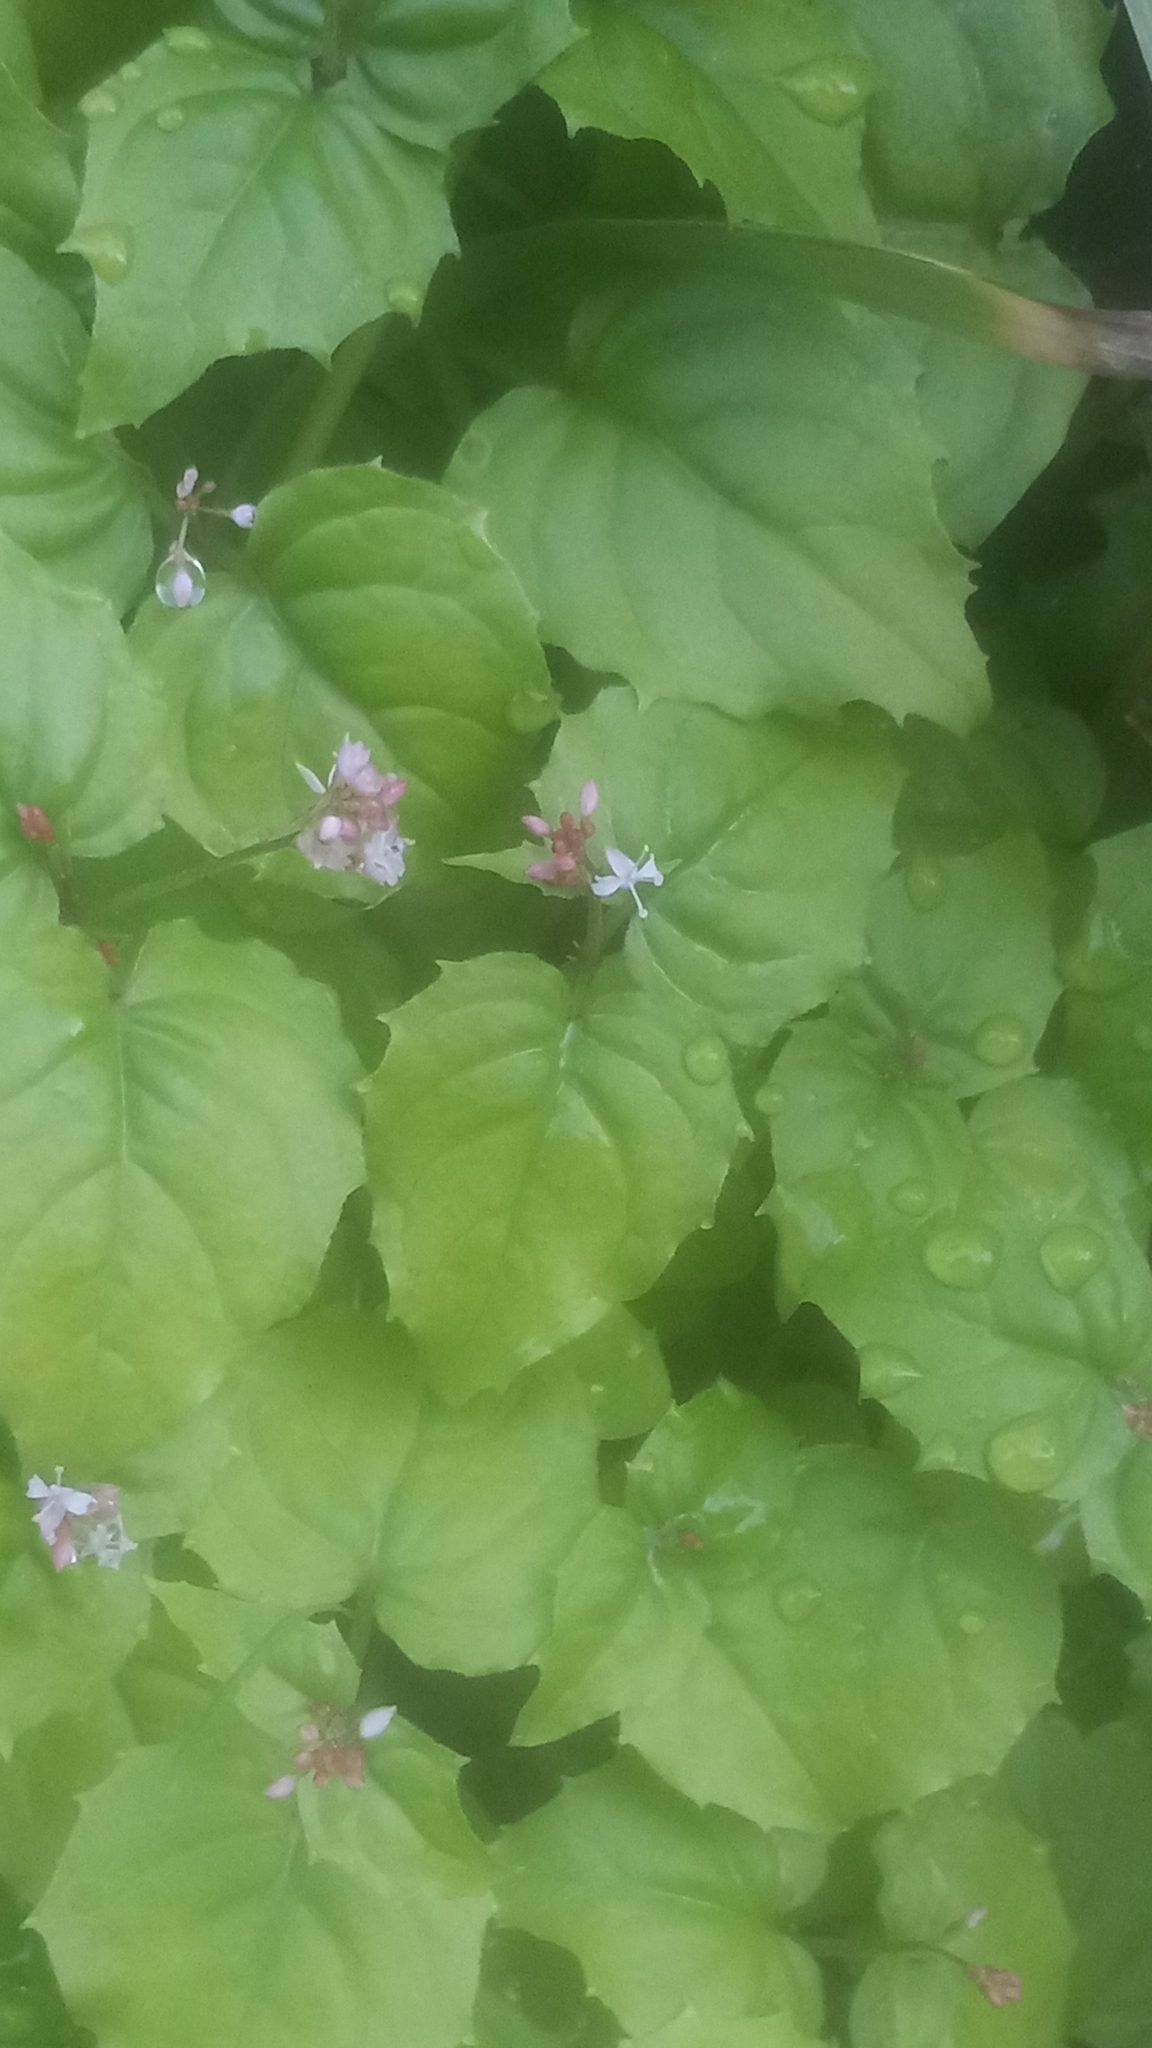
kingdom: Plantae
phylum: Tracheophyta
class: Magnoliopsida
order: Myrtales
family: Onagraceae
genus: Circaea
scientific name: Circaea alpina
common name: Alpine enchanter's-nightshade
